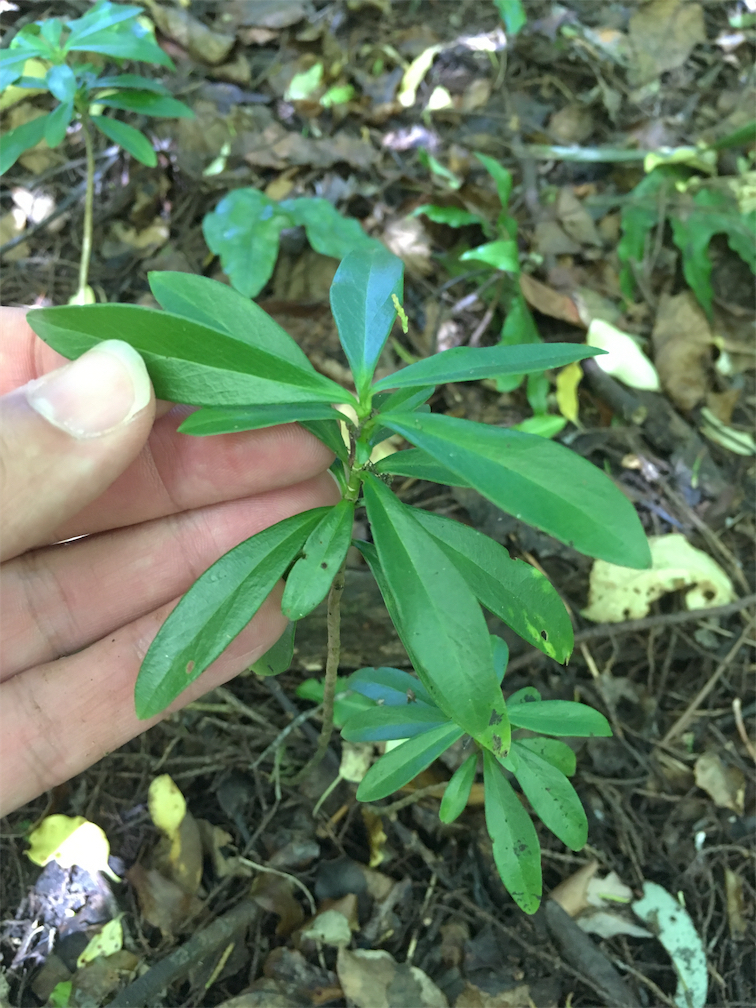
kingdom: Plantae
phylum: Tracheophyta
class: Magnoliopsida
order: Malvales
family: Thymelaeaceae
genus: Daphne
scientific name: Daphne laureola
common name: Spurge-laurel
